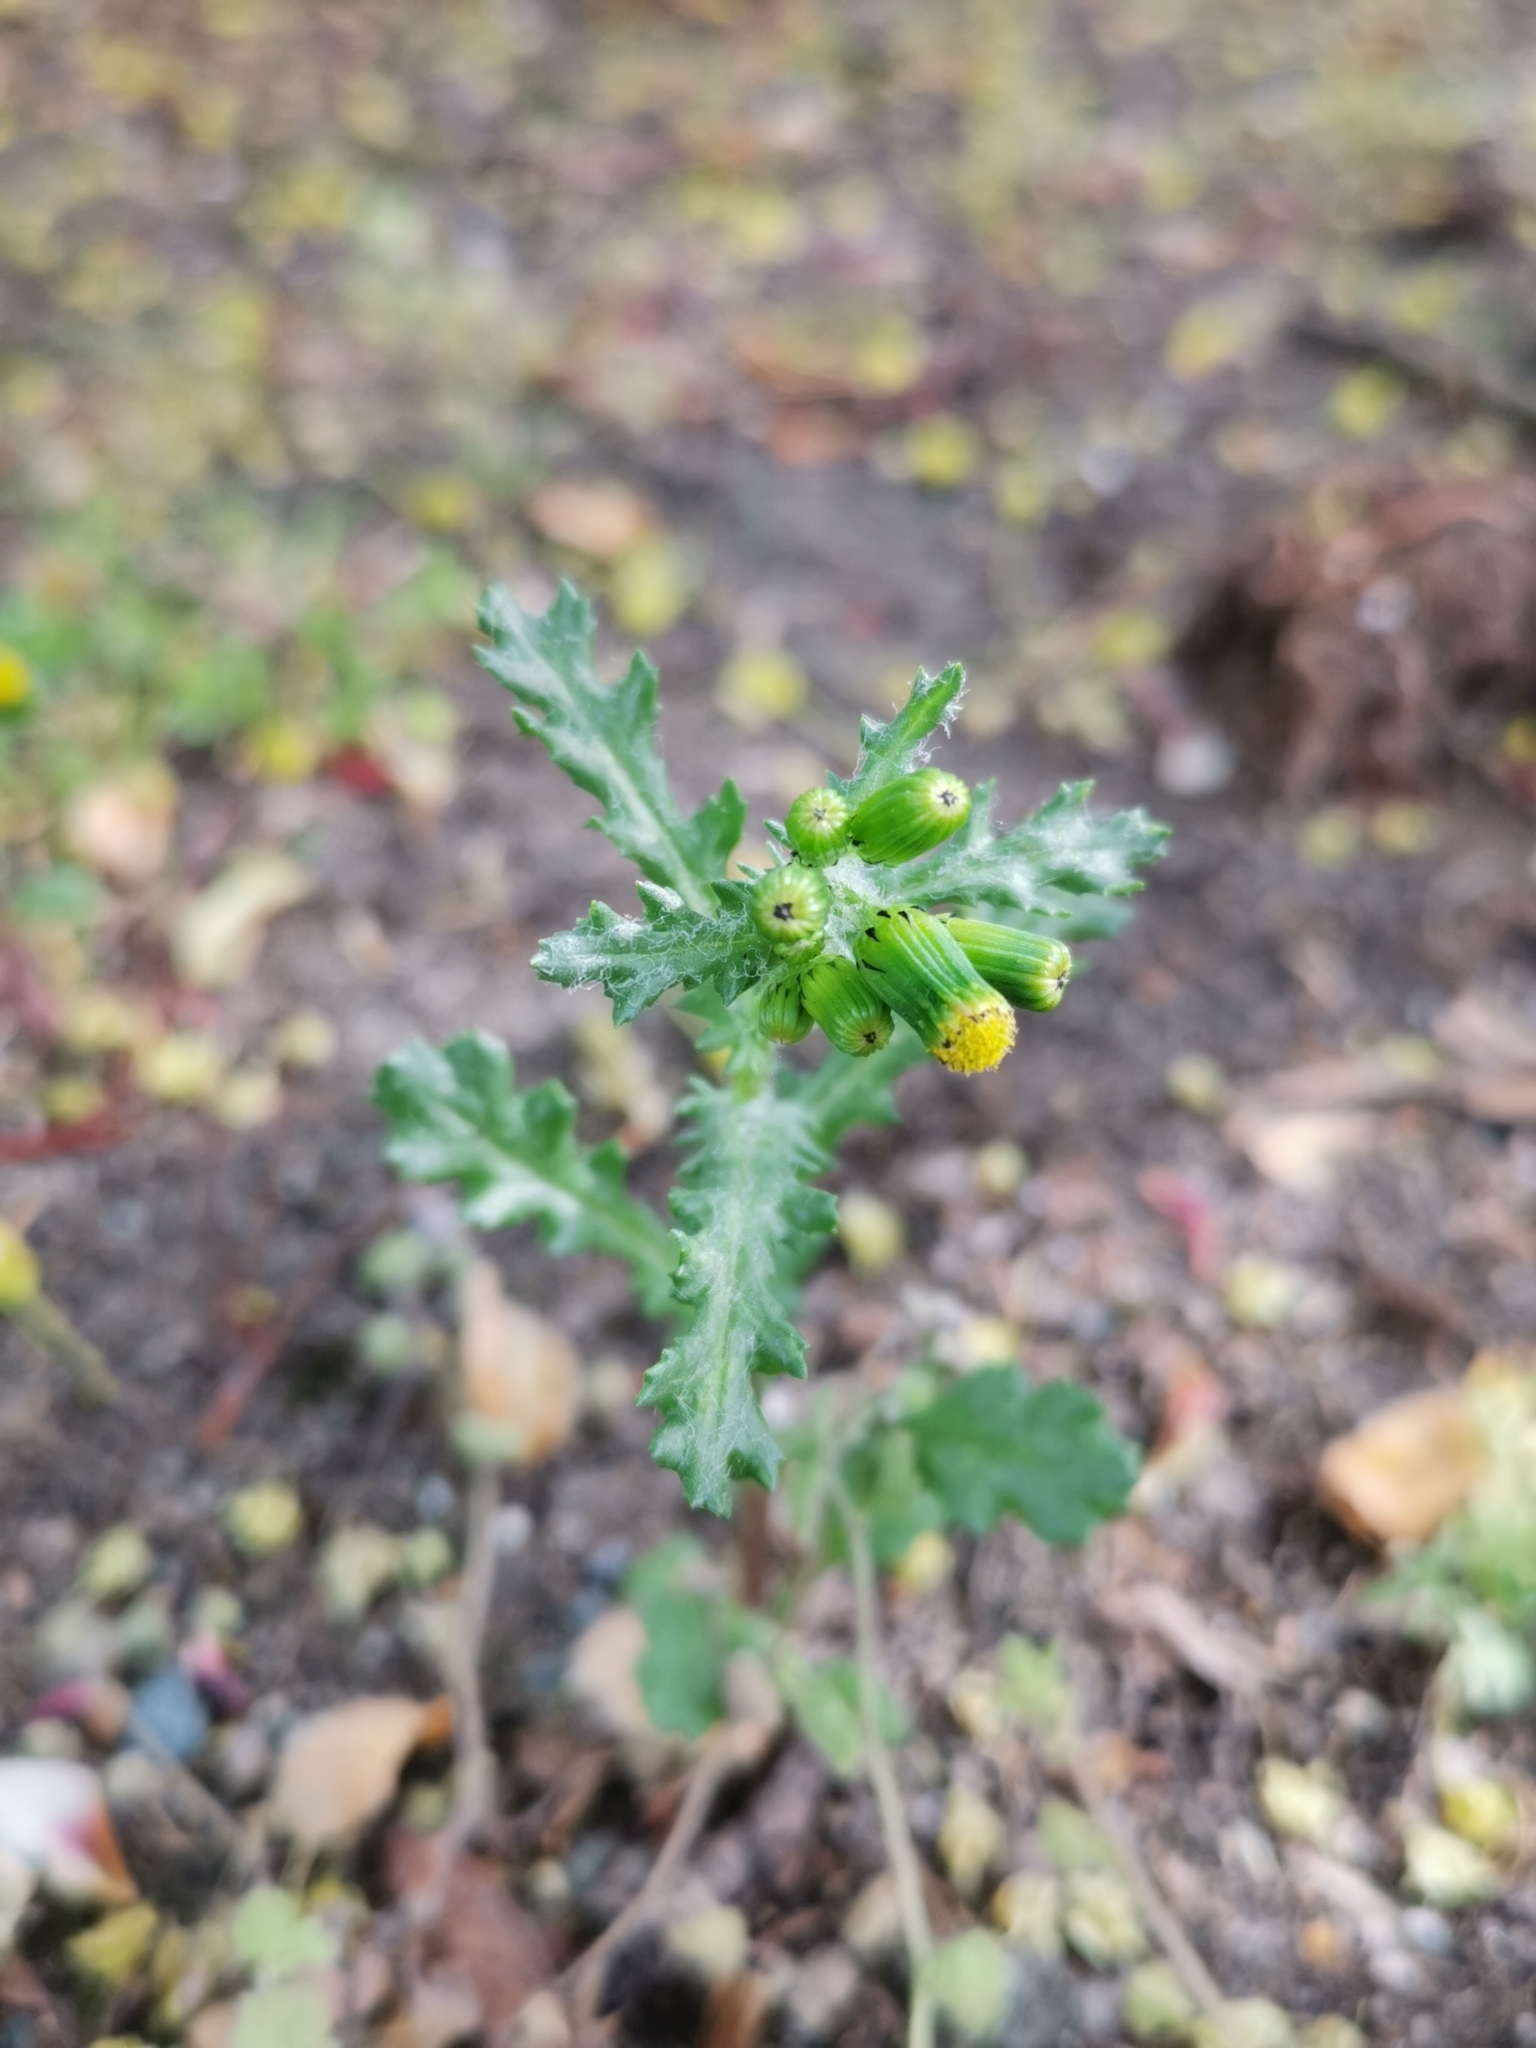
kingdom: Plantae
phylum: Tracheophyta
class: Magnoliopsida
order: Asterales
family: Asteraceae
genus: Senecio
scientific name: Senecio vulgaris
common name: Old-man-in-the-spring
